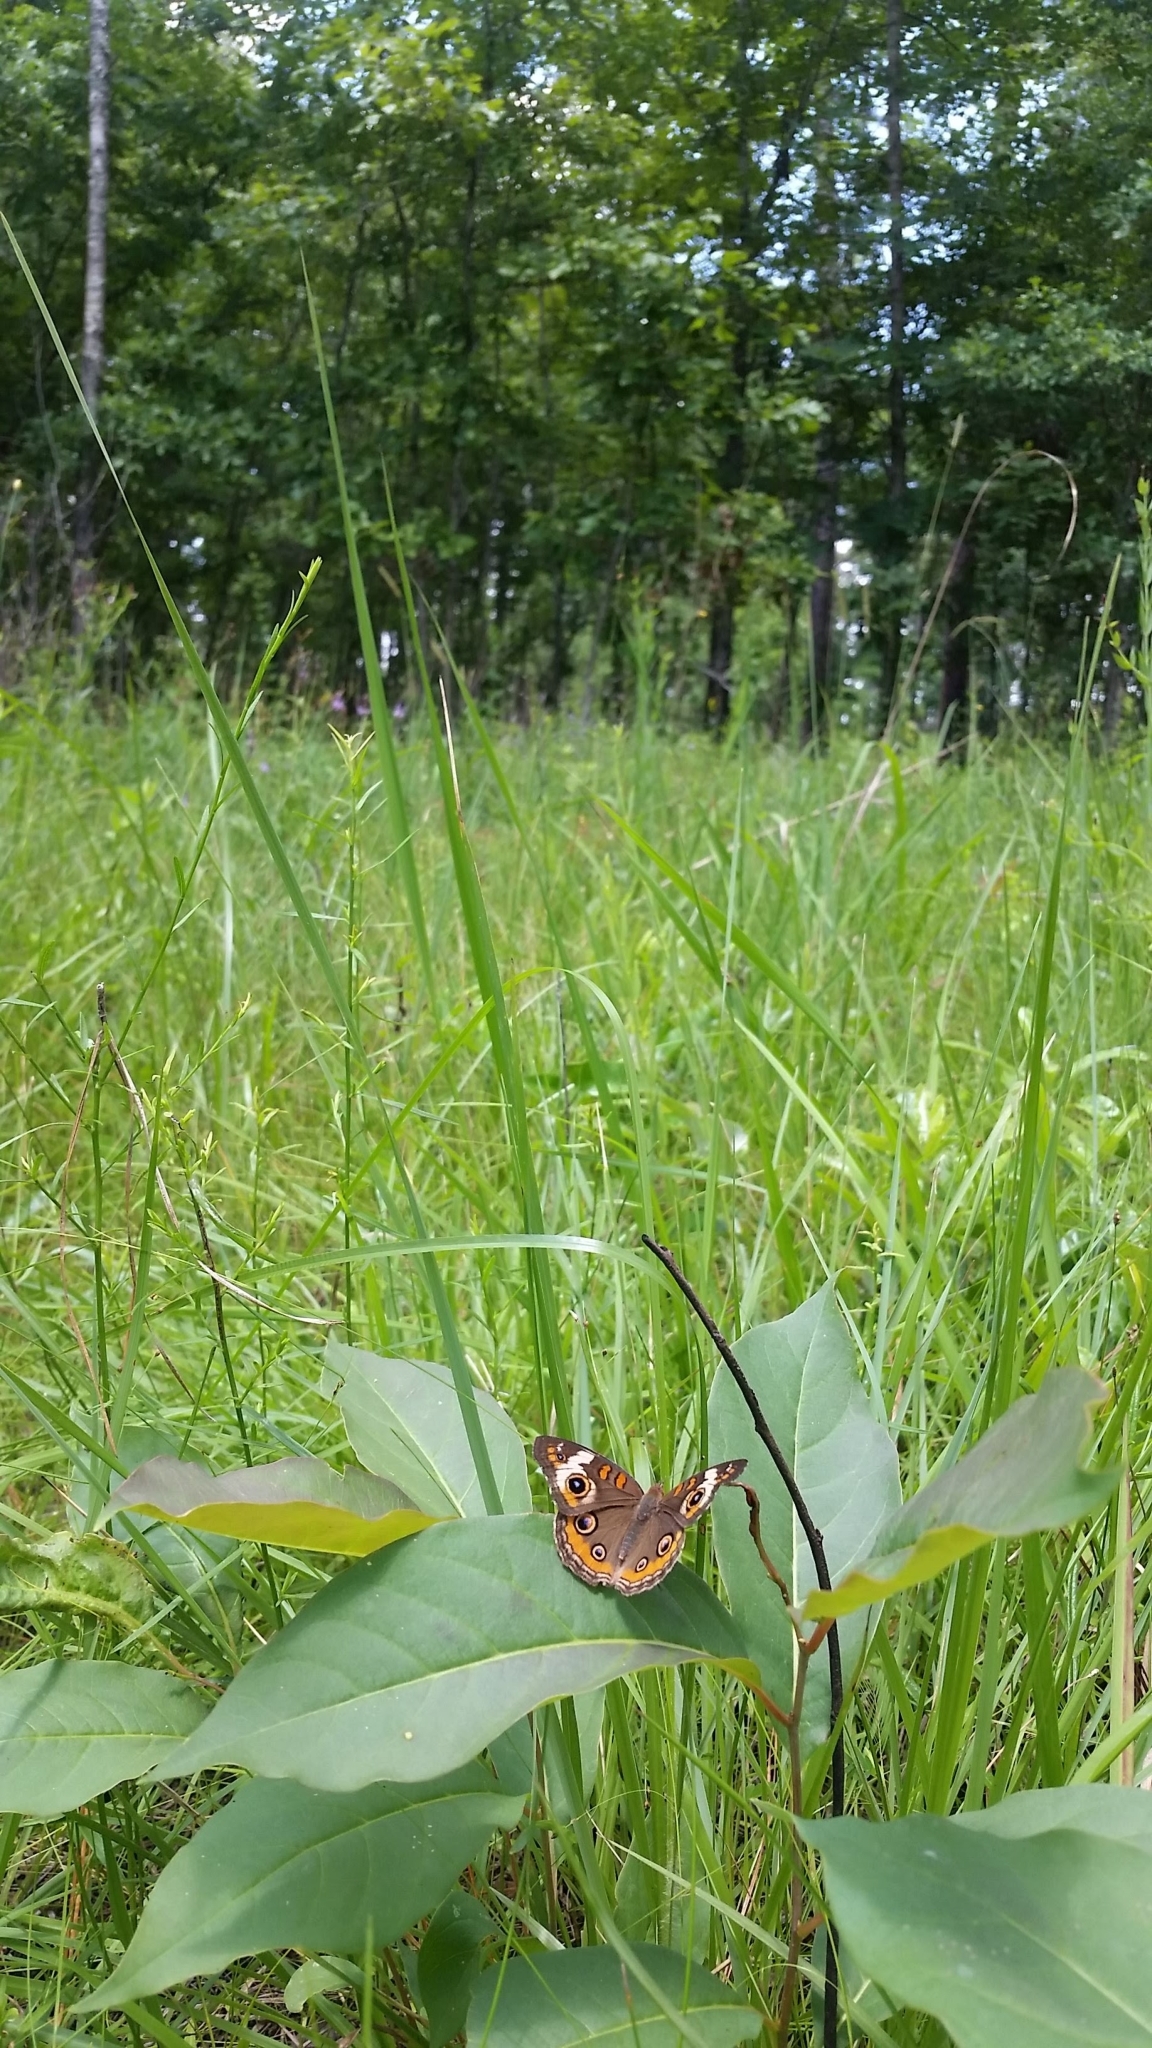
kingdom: Animalia
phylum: Arthropoda
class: Insecta
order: Lepidoptera
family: Nymphalidae
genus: Junonia
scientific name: Junonia coenia
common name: Common buckeye
